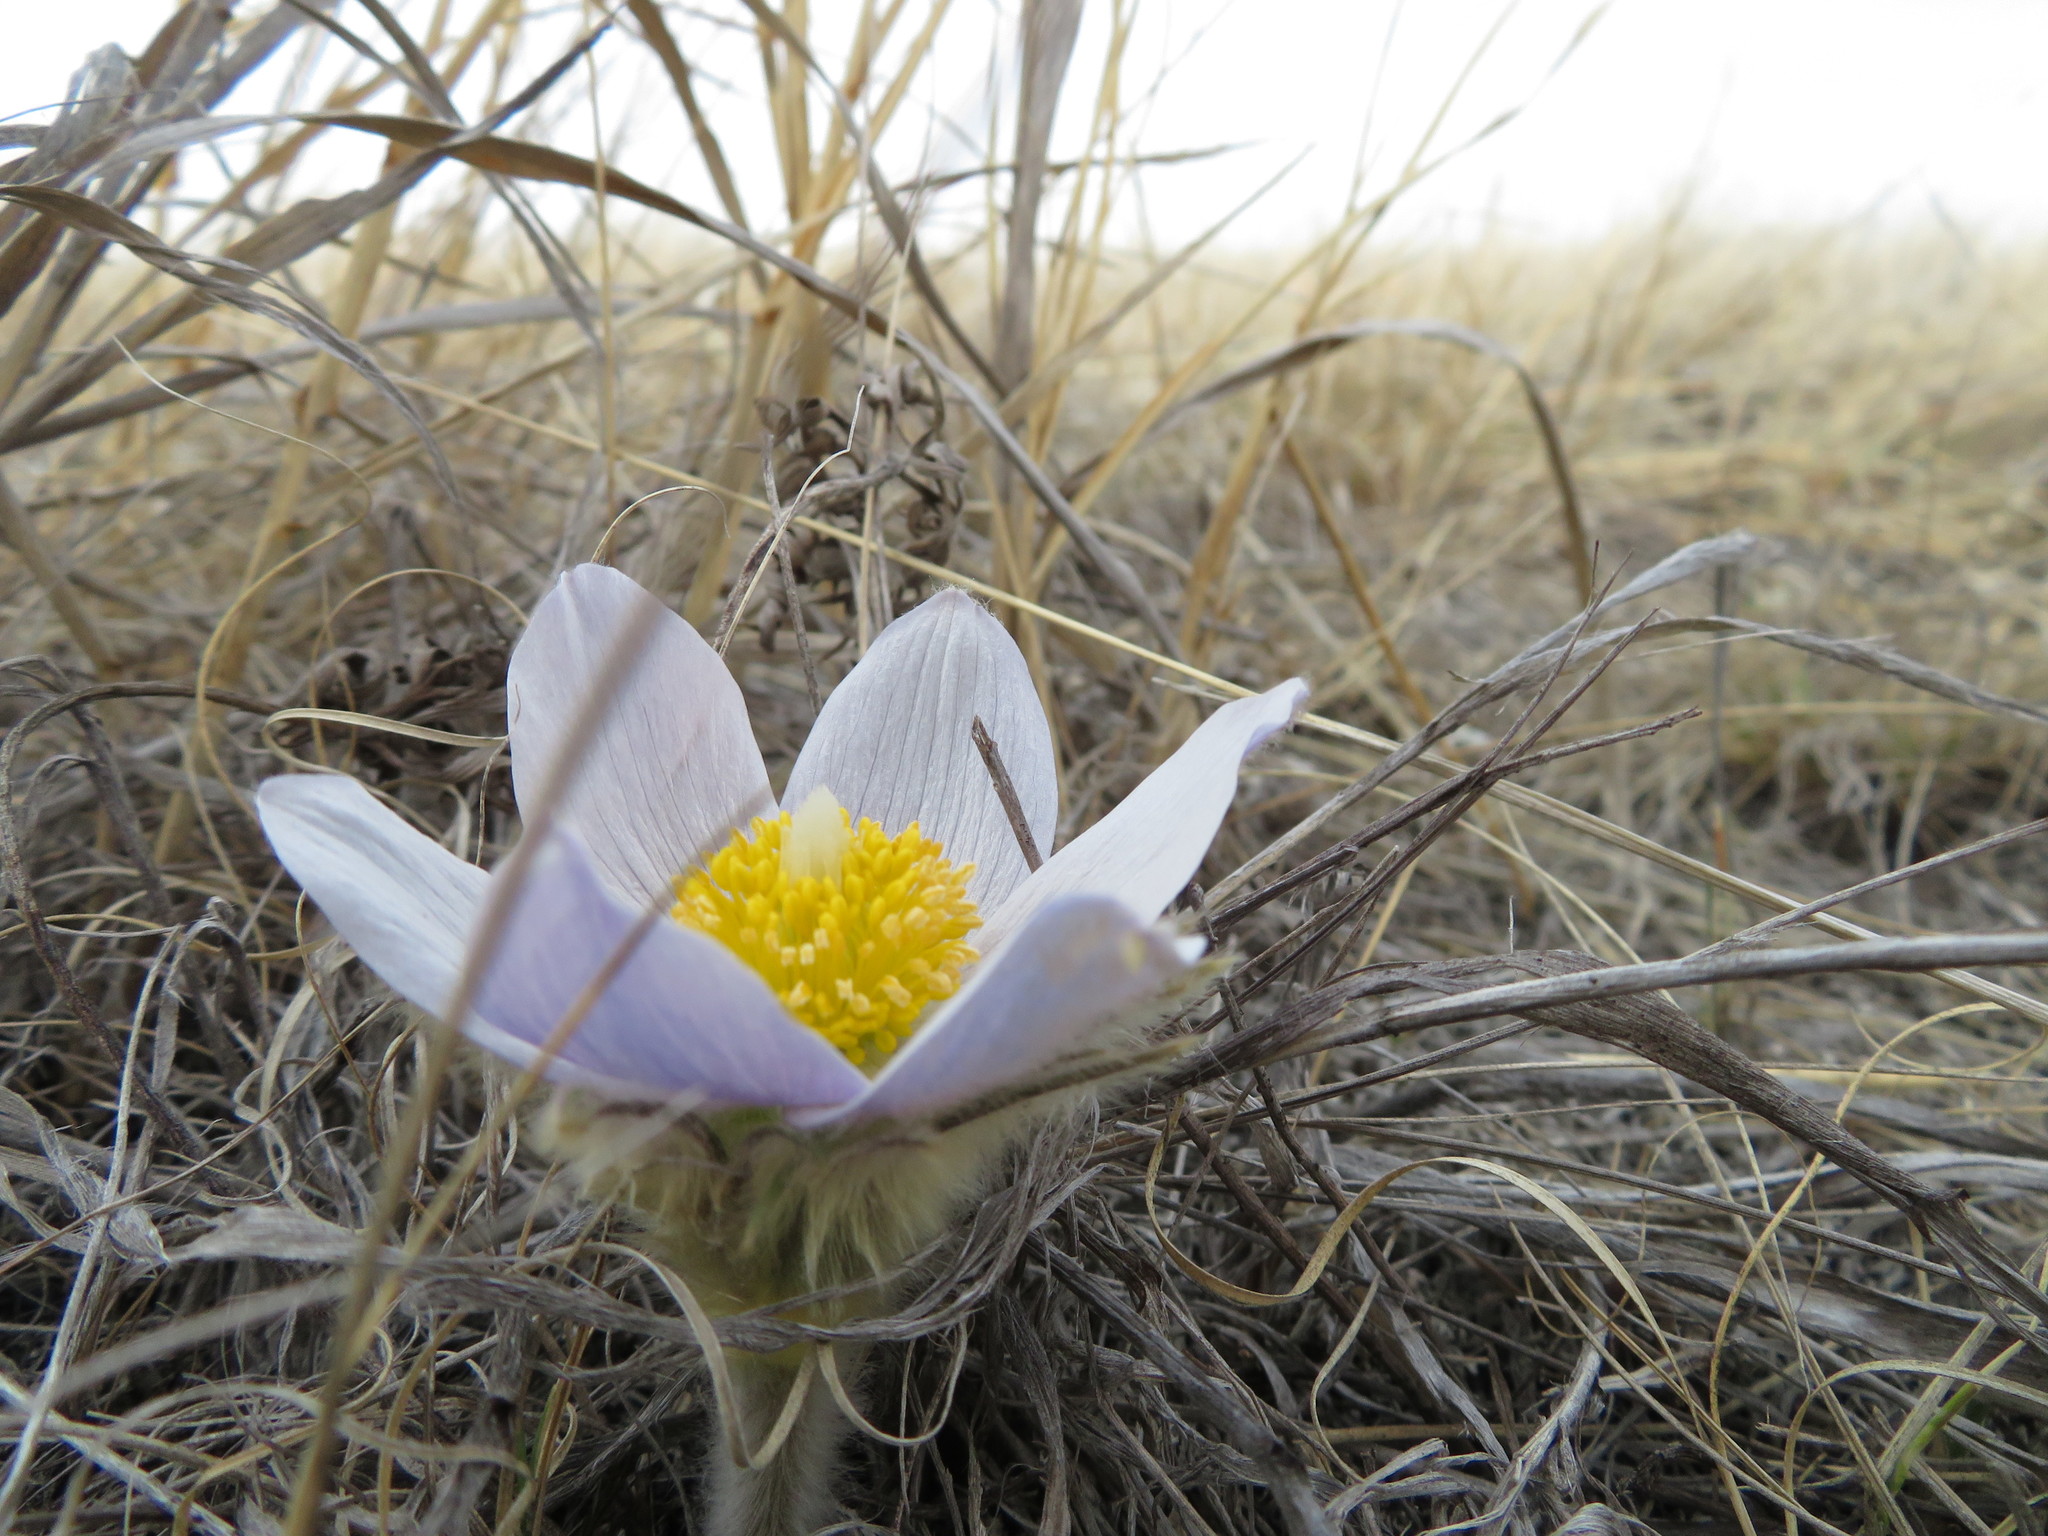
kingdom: Plantae
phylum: Tracheophyta
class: Magnoliopsida
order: Ranunculales
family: Ranunculaceae
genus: Pulsatilla
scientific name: Pulsatilla nuttalliana
